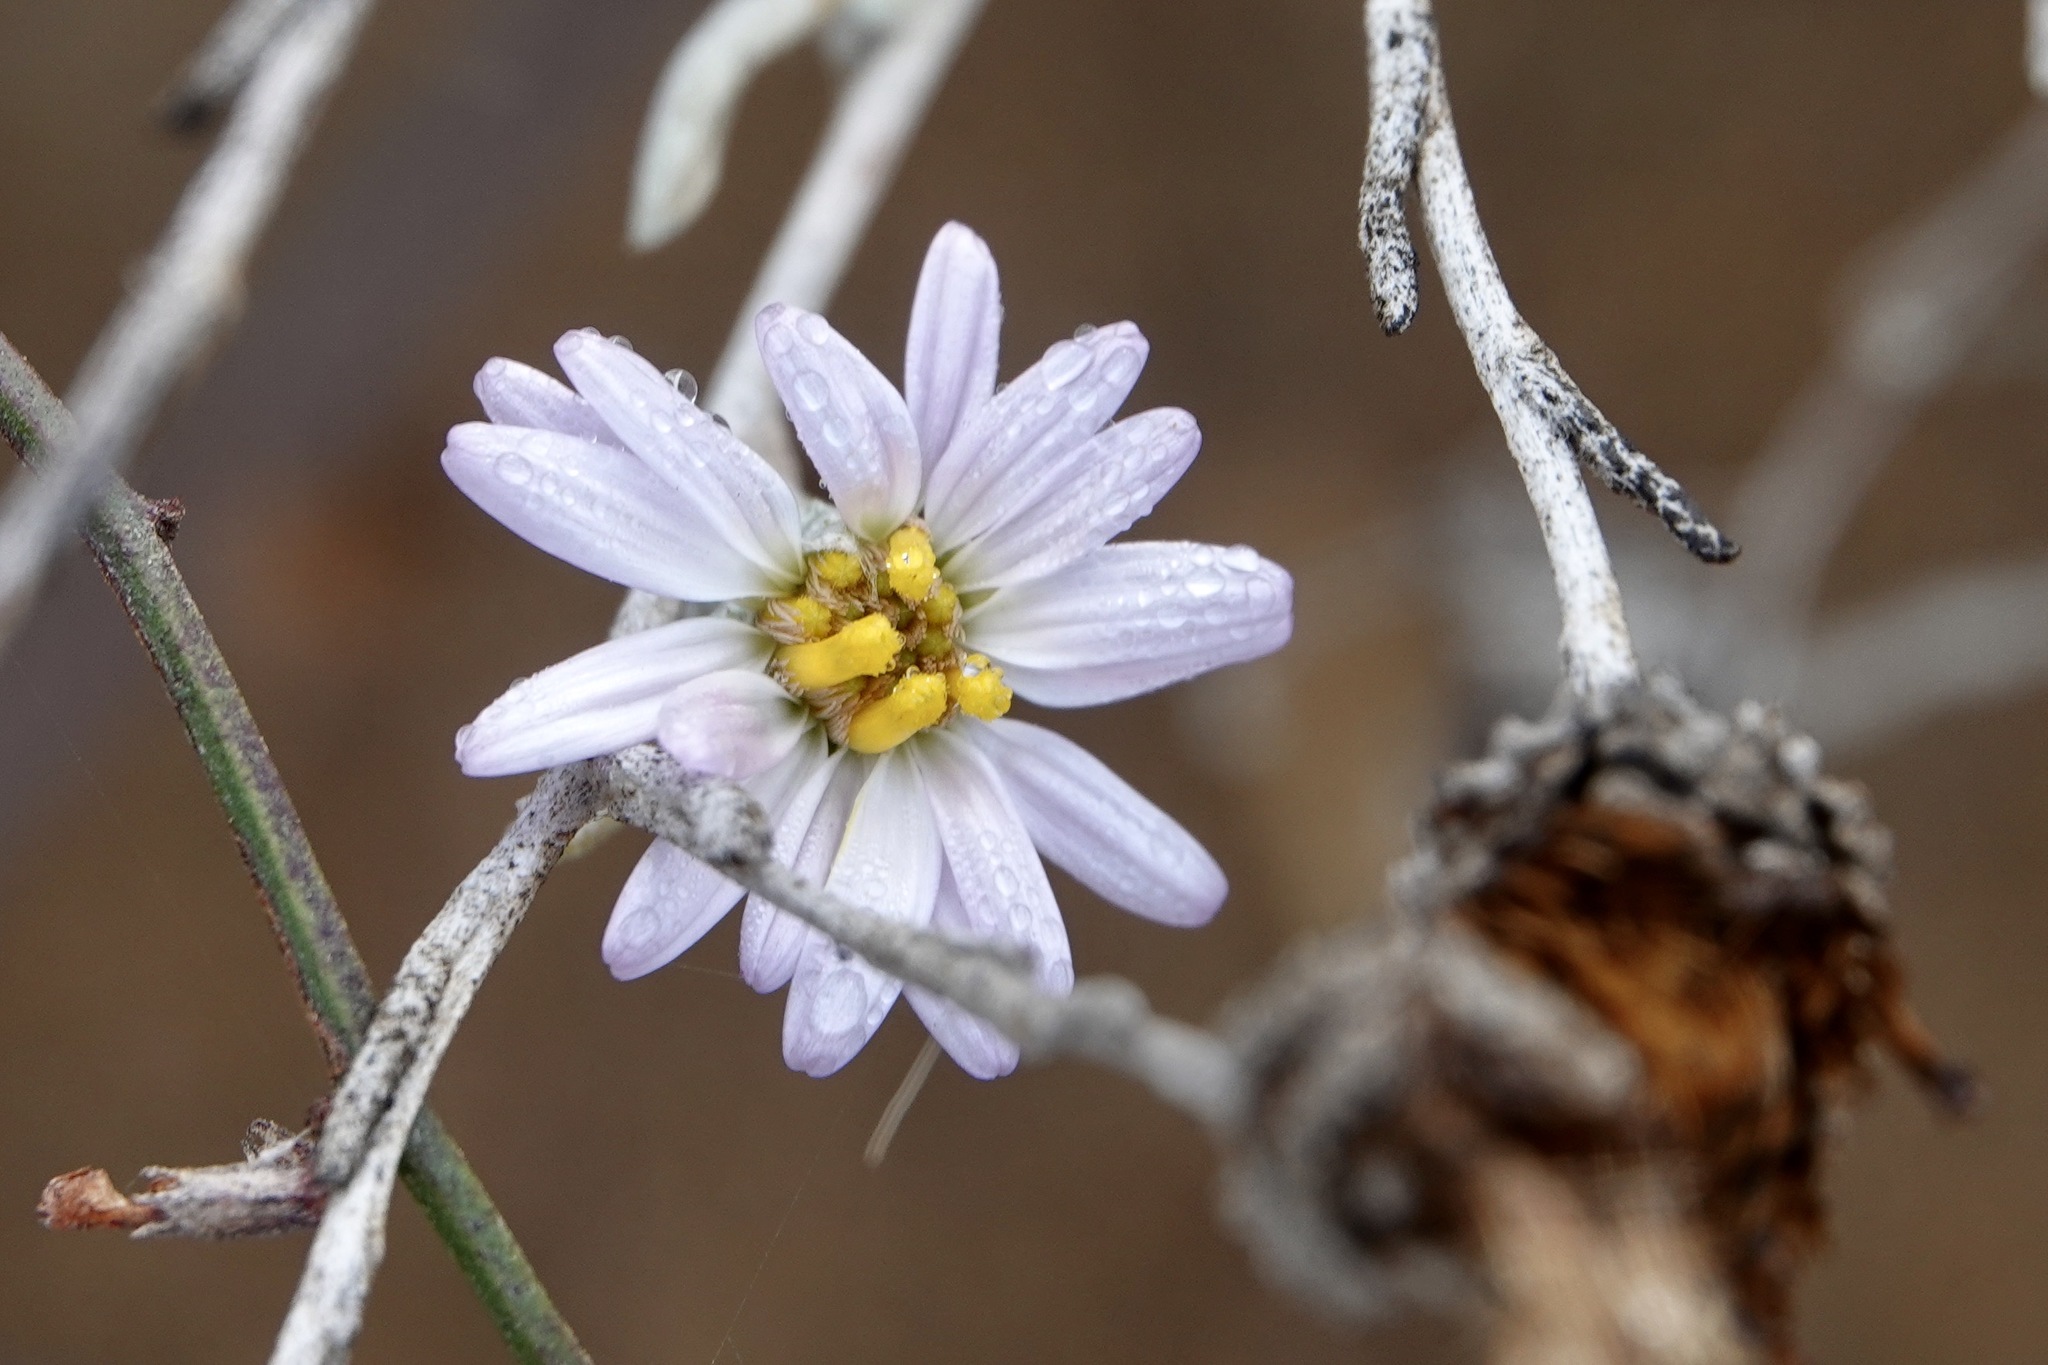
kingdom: Plantae
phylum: Tracheophyta
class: Magnoliopsida
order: Asterales
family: Asteraceae
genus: Corethrogyne
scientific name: Corethrogyne filaginifolia
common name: Sand-aster
